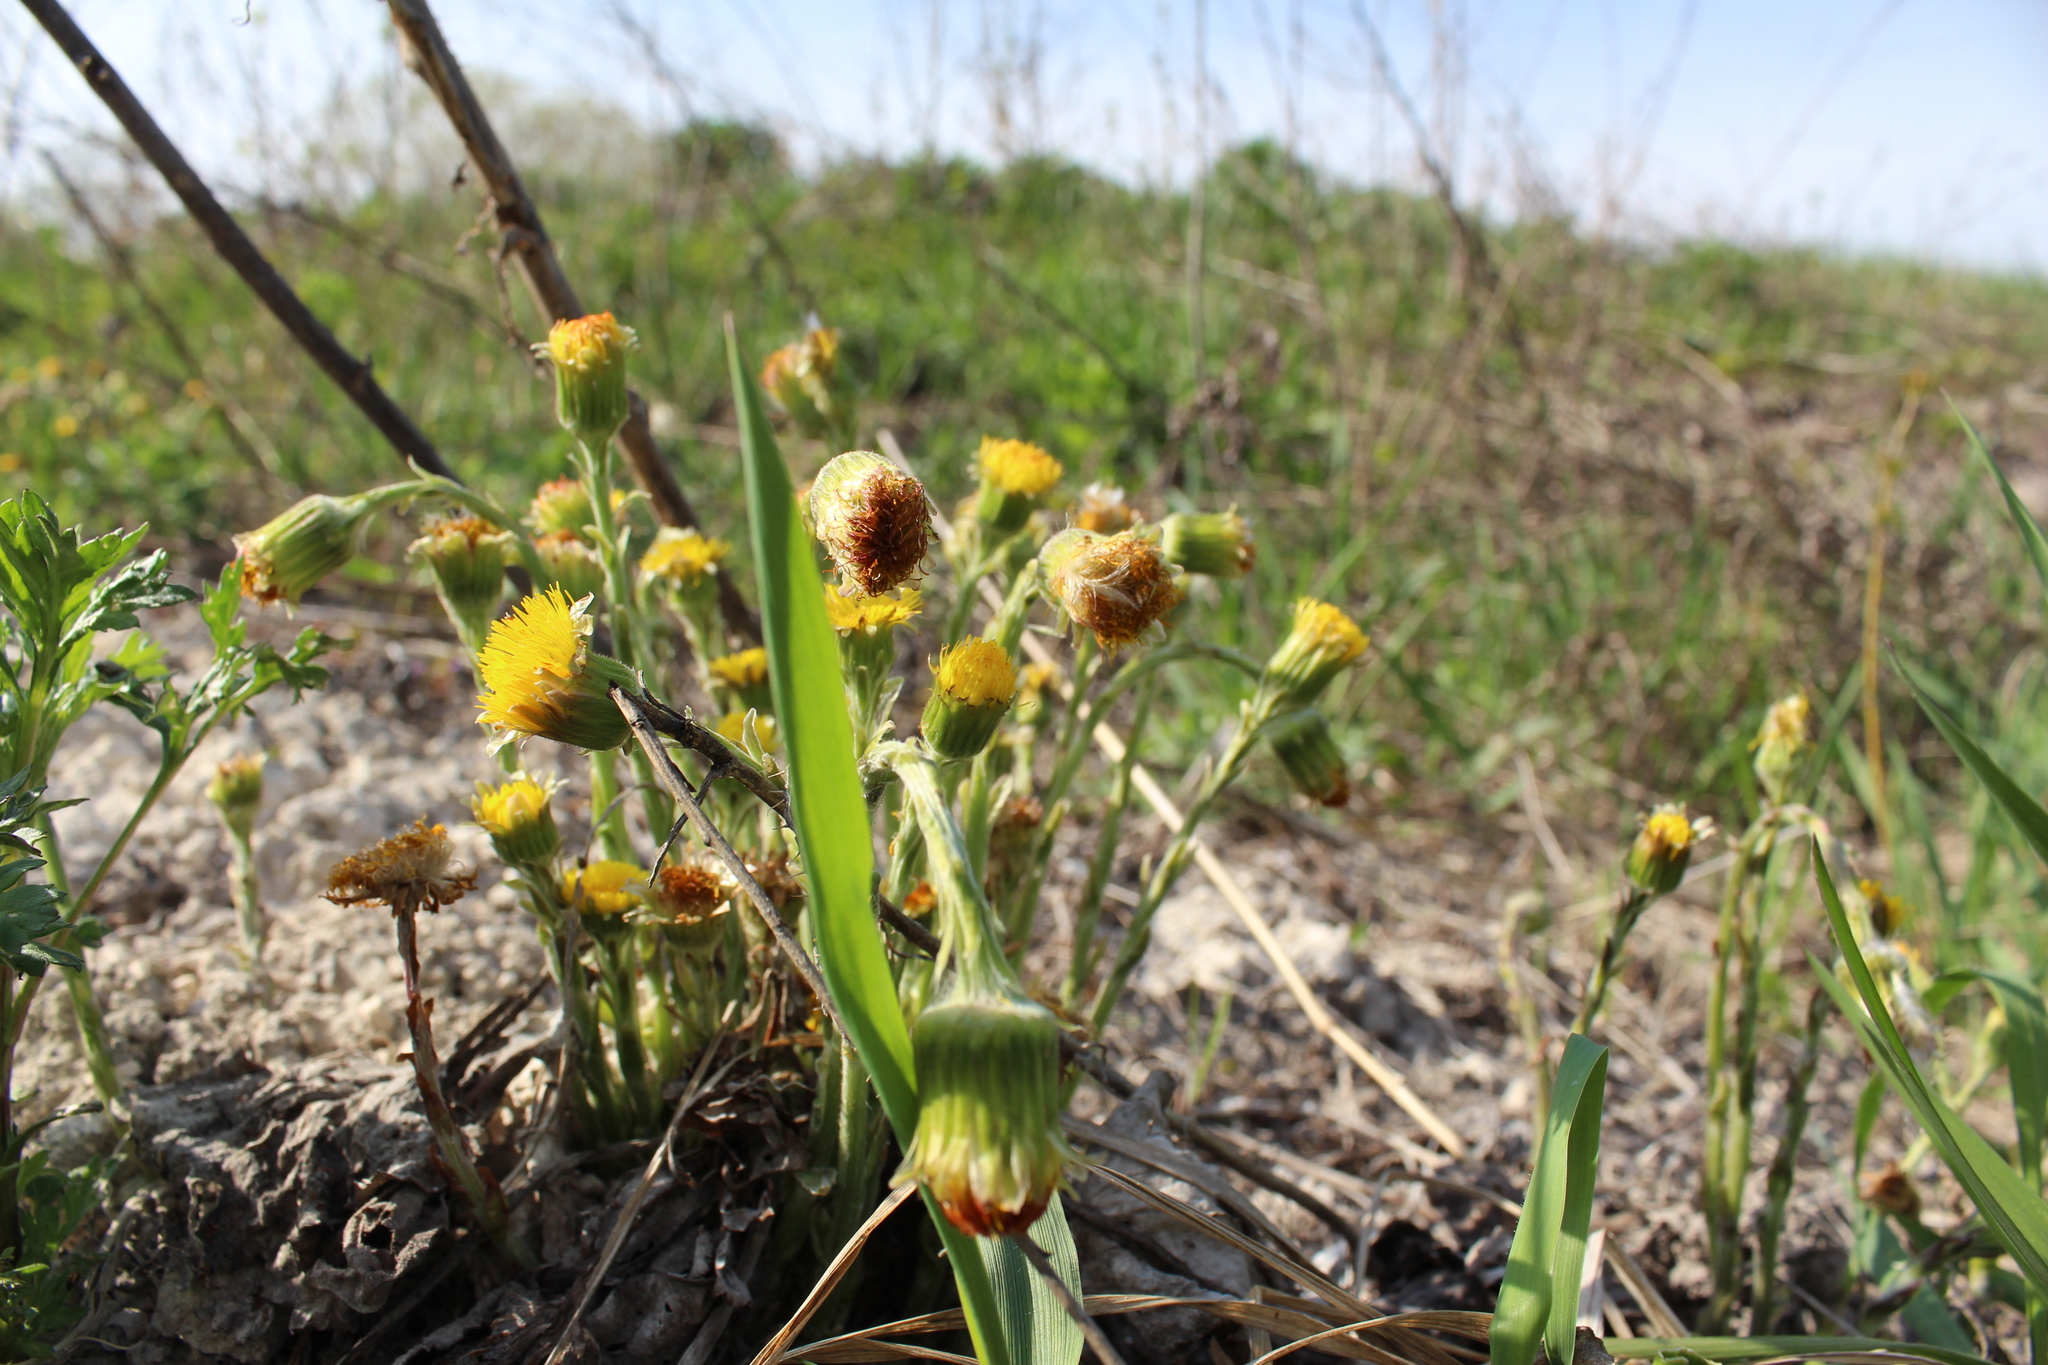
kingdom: Plantae
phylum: Tracheophyta
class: Magnoliopsida
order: Asterales
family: Asteraceae
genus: Tussilago
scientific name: Tussilago farfara
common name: Coltsfoot
